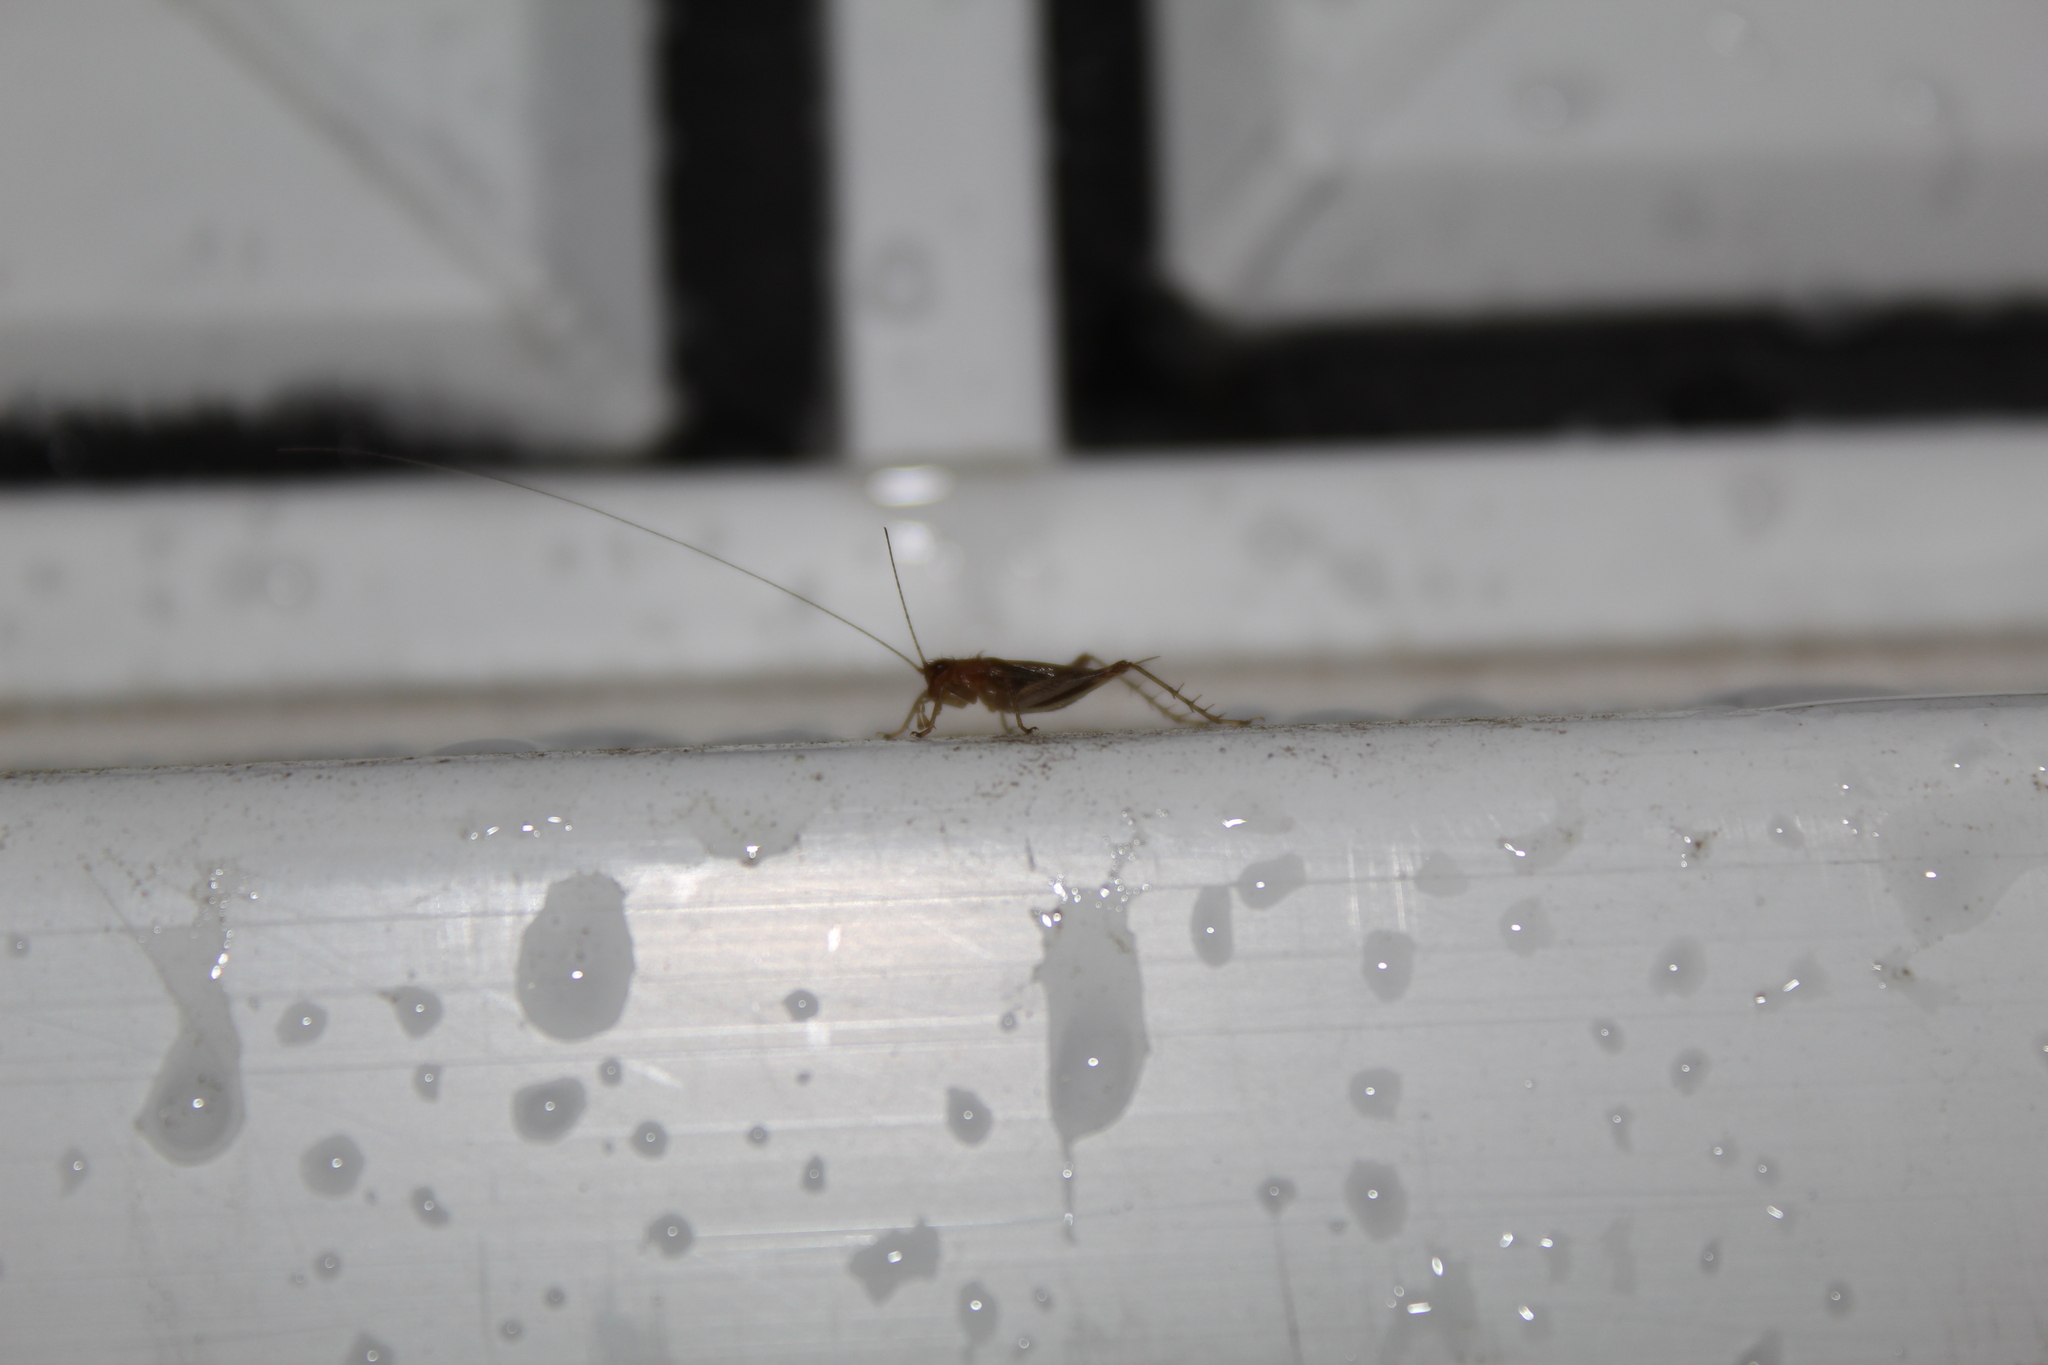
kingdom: Animalia
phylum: Arthropoda
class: Insecta
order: Orthoptera
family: Trigonidiidae
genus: Anaxipha
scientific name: Anaxipha exigua
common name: Say's bush cricket
